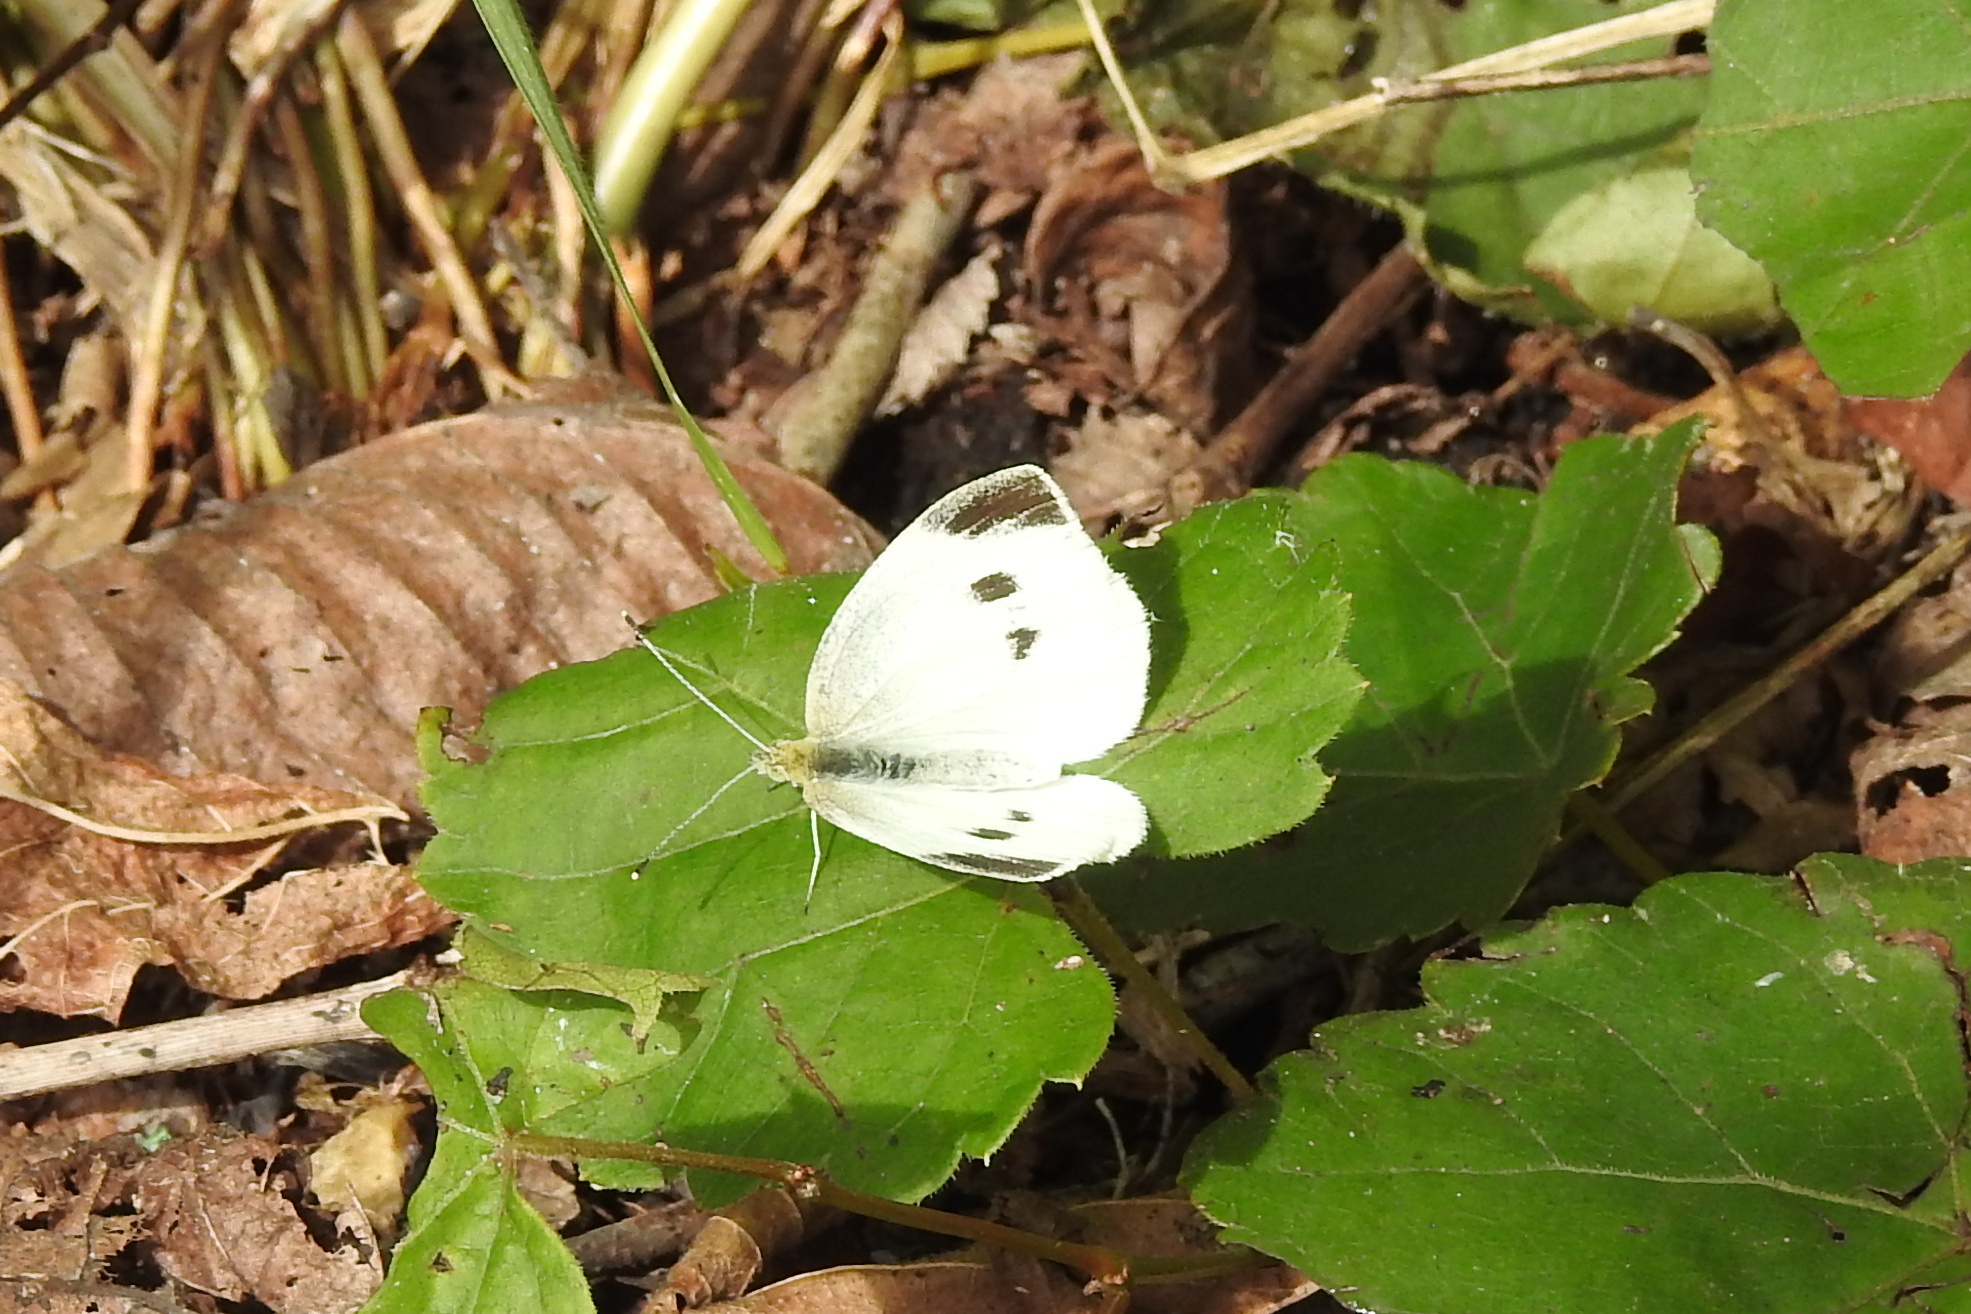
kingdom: Animalia
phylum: Arthropoda
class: Insecta
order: Lepidoptera
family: Pieridae
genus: Pieris
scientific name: Pieris rapae
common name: Small white
